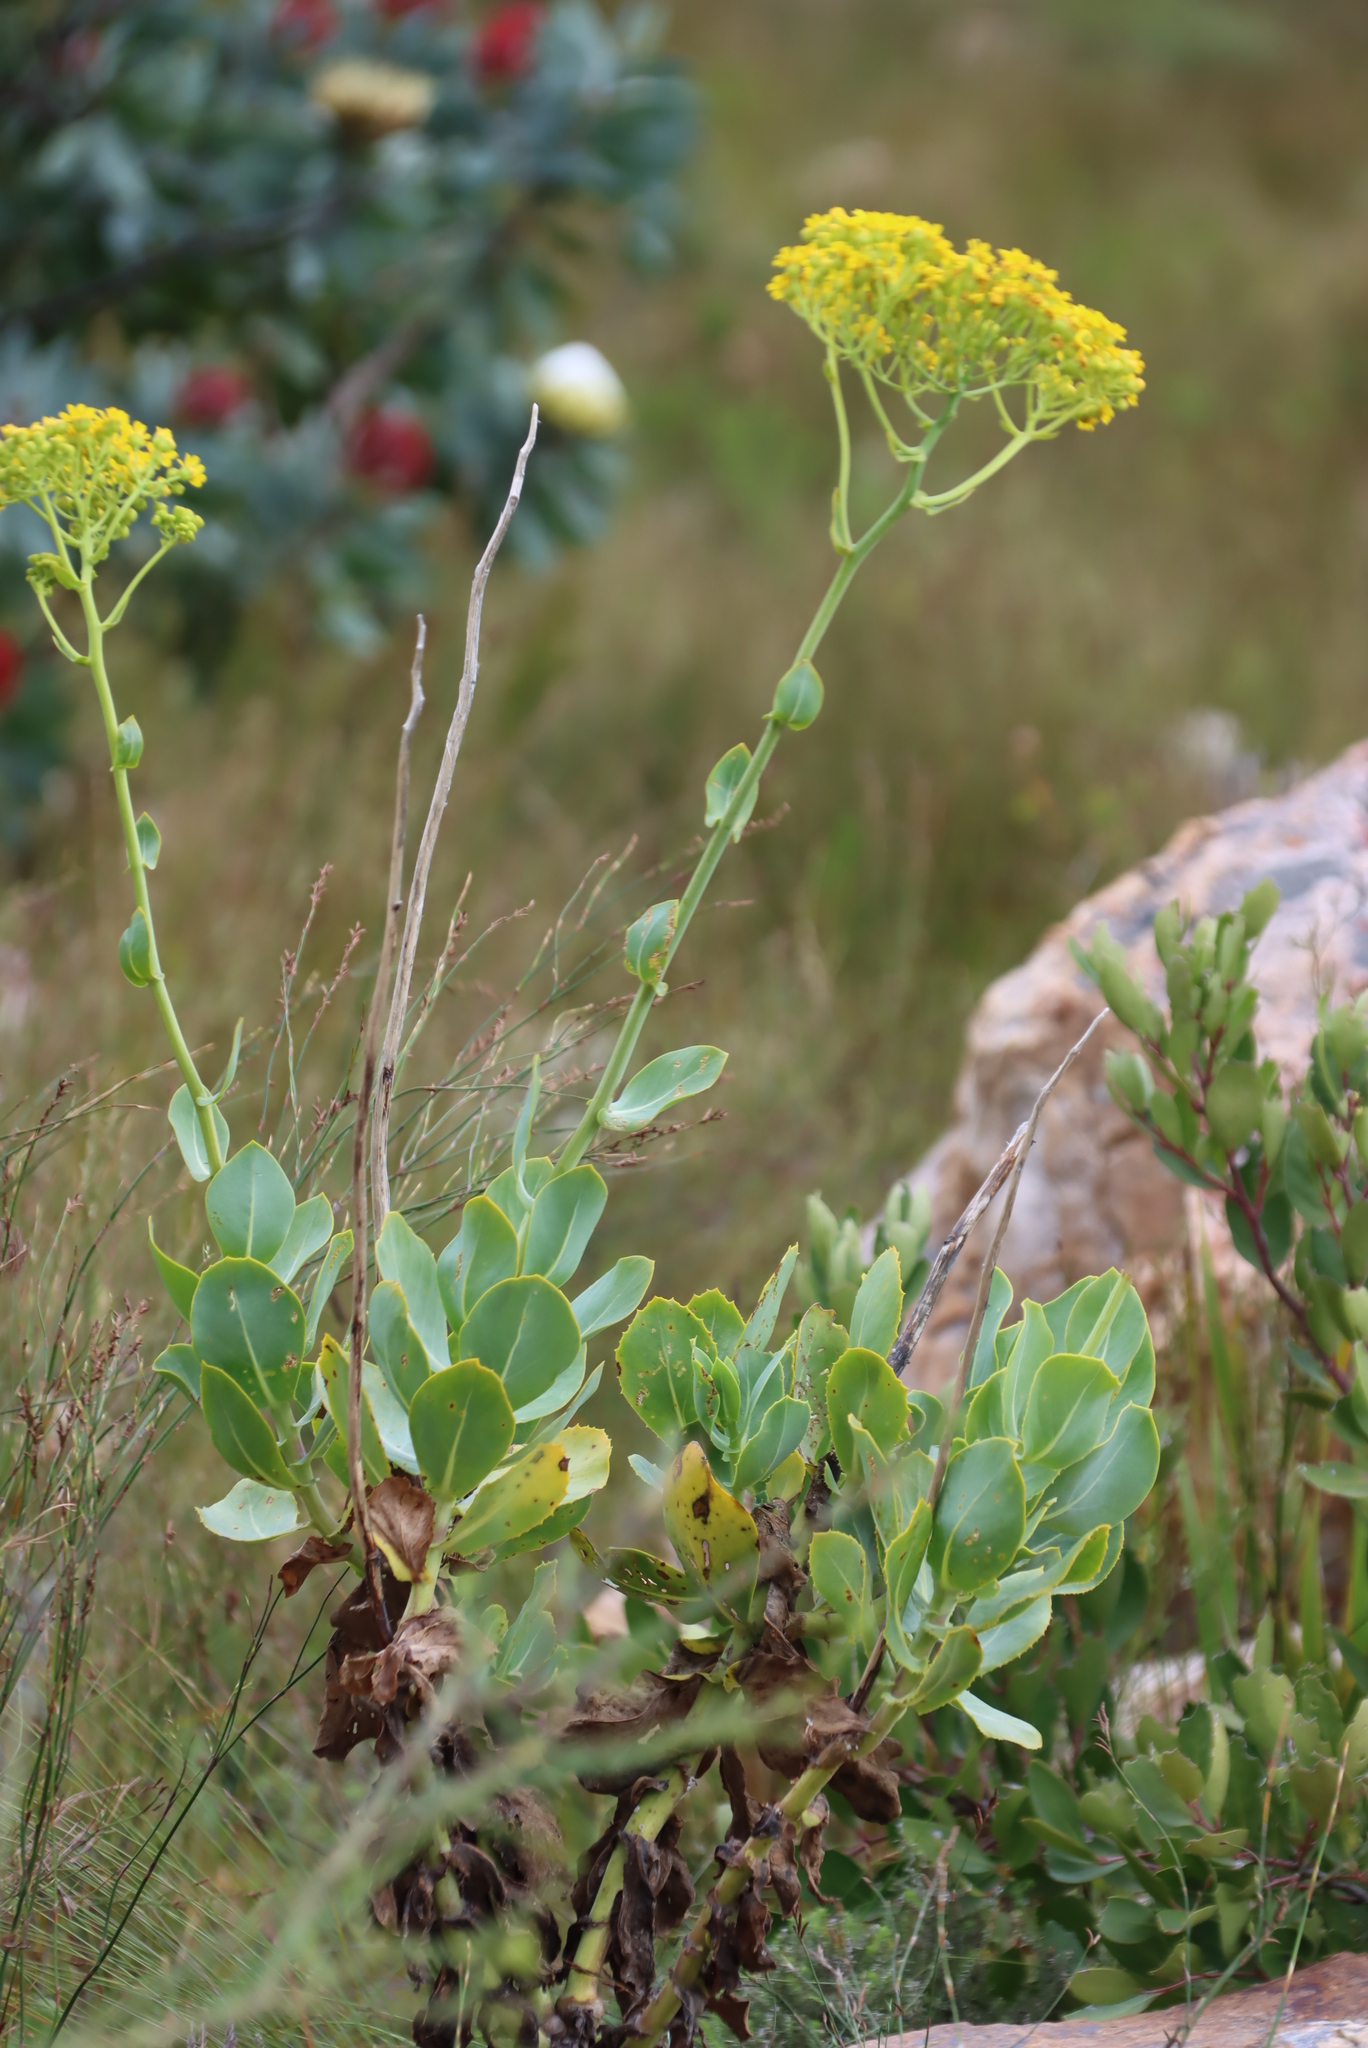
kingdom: Plantae
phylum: Tracheophyta
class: Magnoliopsida
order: Asterales
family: Asteraceae
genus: Othonna
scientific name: Othonna parviflora
